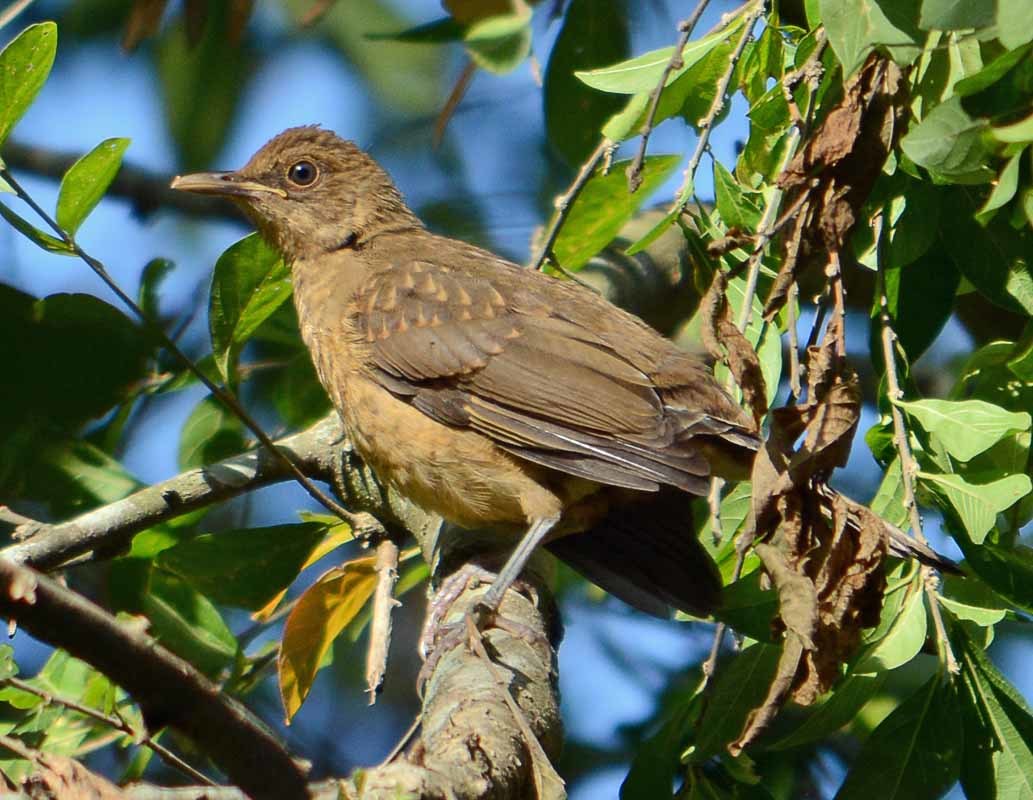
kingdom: Animalia
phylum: Chordata
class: Aves
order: Passeriformes
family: Turdidae
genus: Turdus
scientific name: Turdus grayi
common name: Clay-colored thrush
